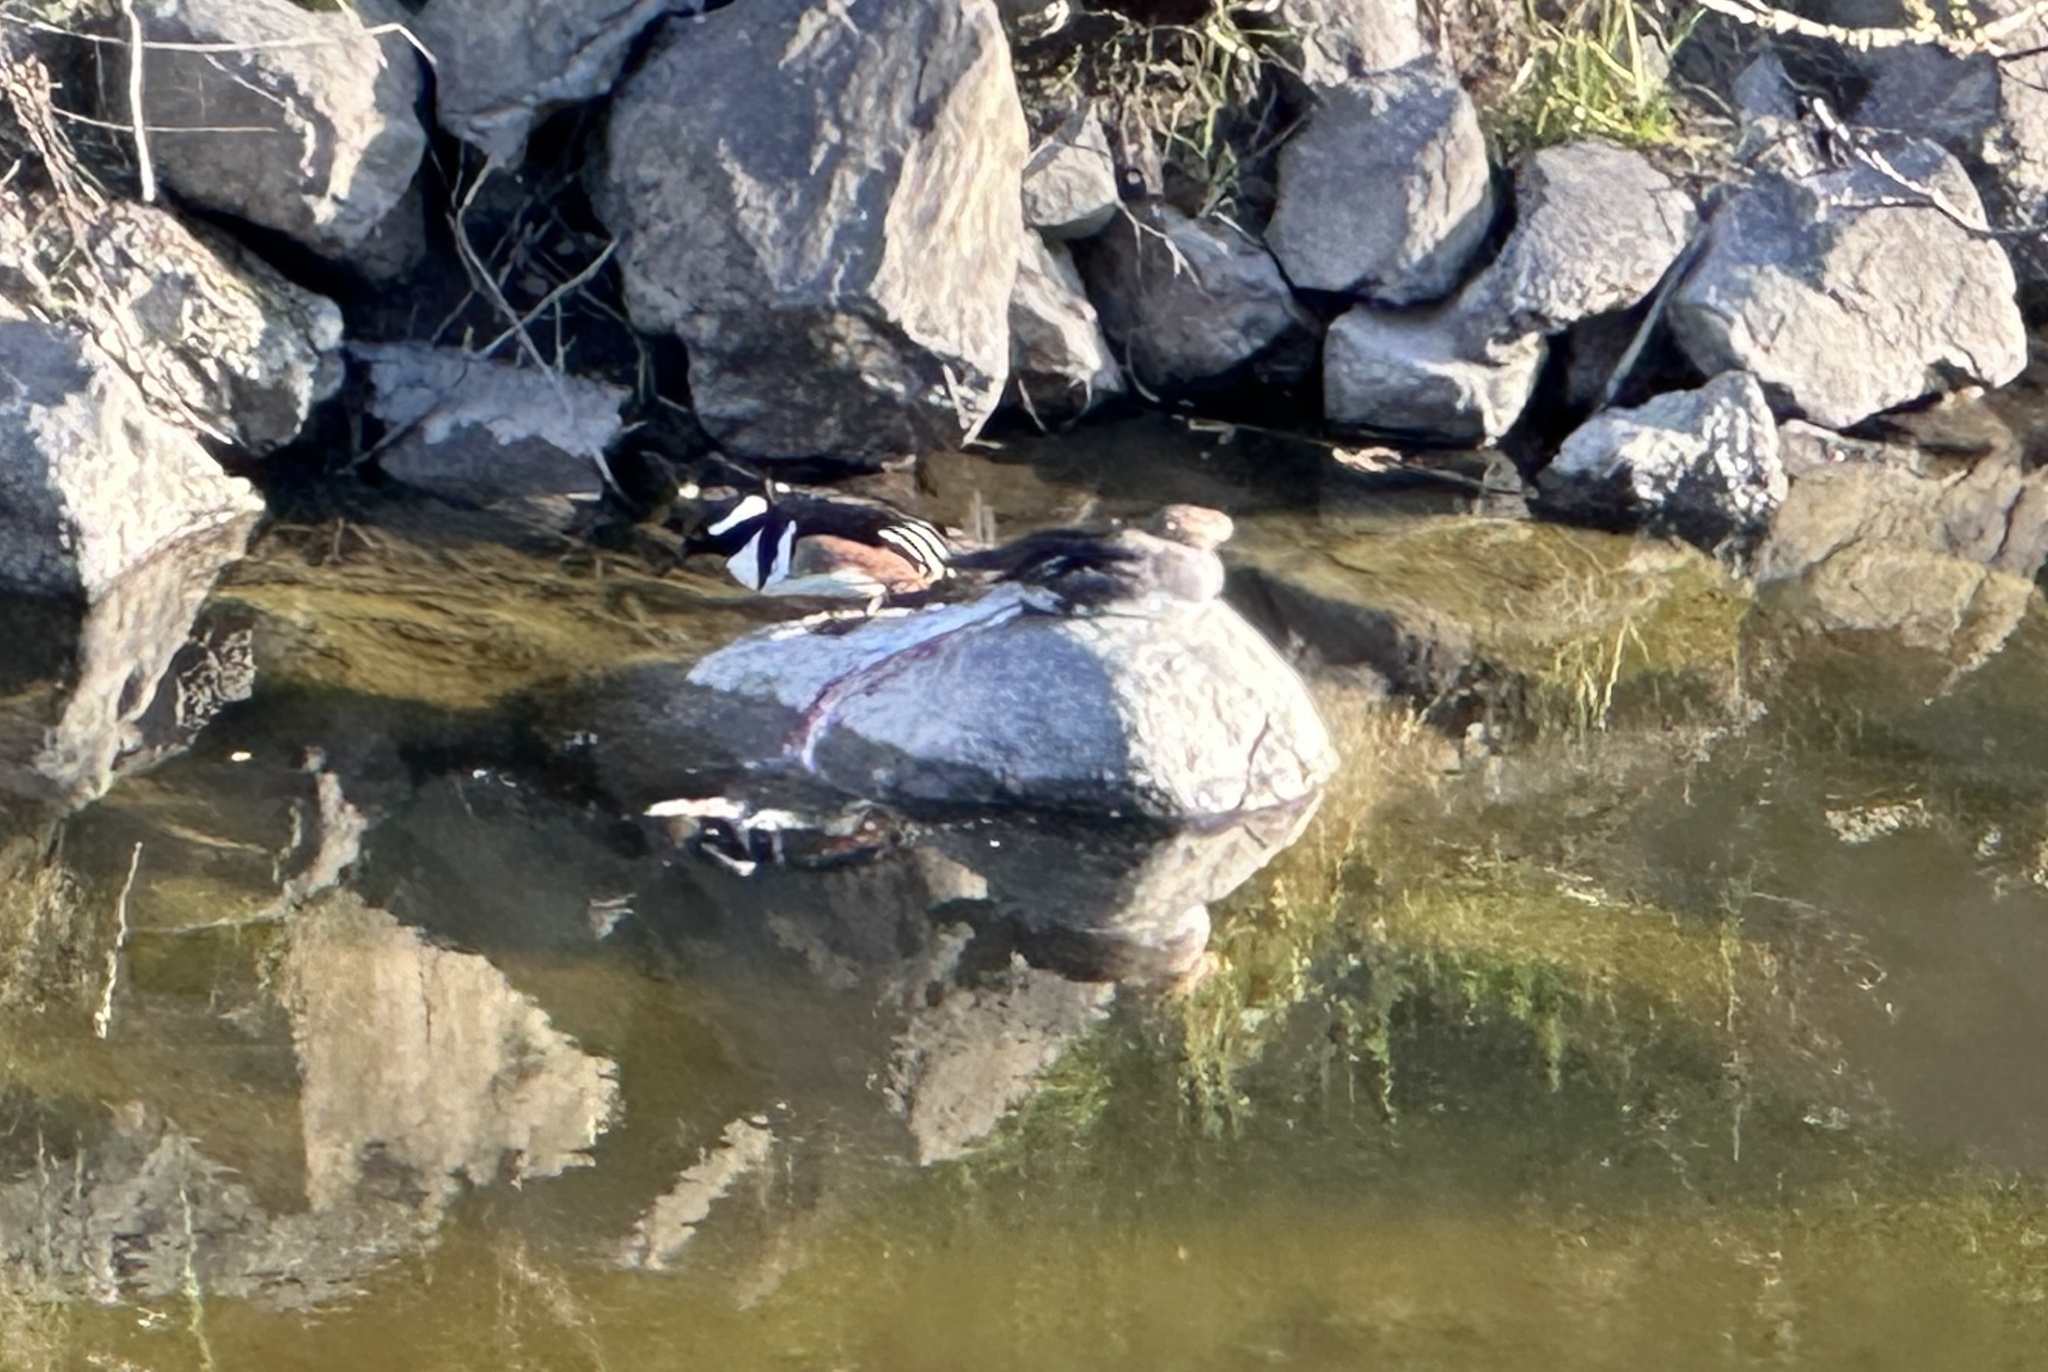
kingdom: Animalia
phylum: Chordata
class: Aves
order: Anseriformes
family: Anatidae
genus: Lophodytes
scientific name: Lophodytes cucullatus
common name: Hooded merganser
